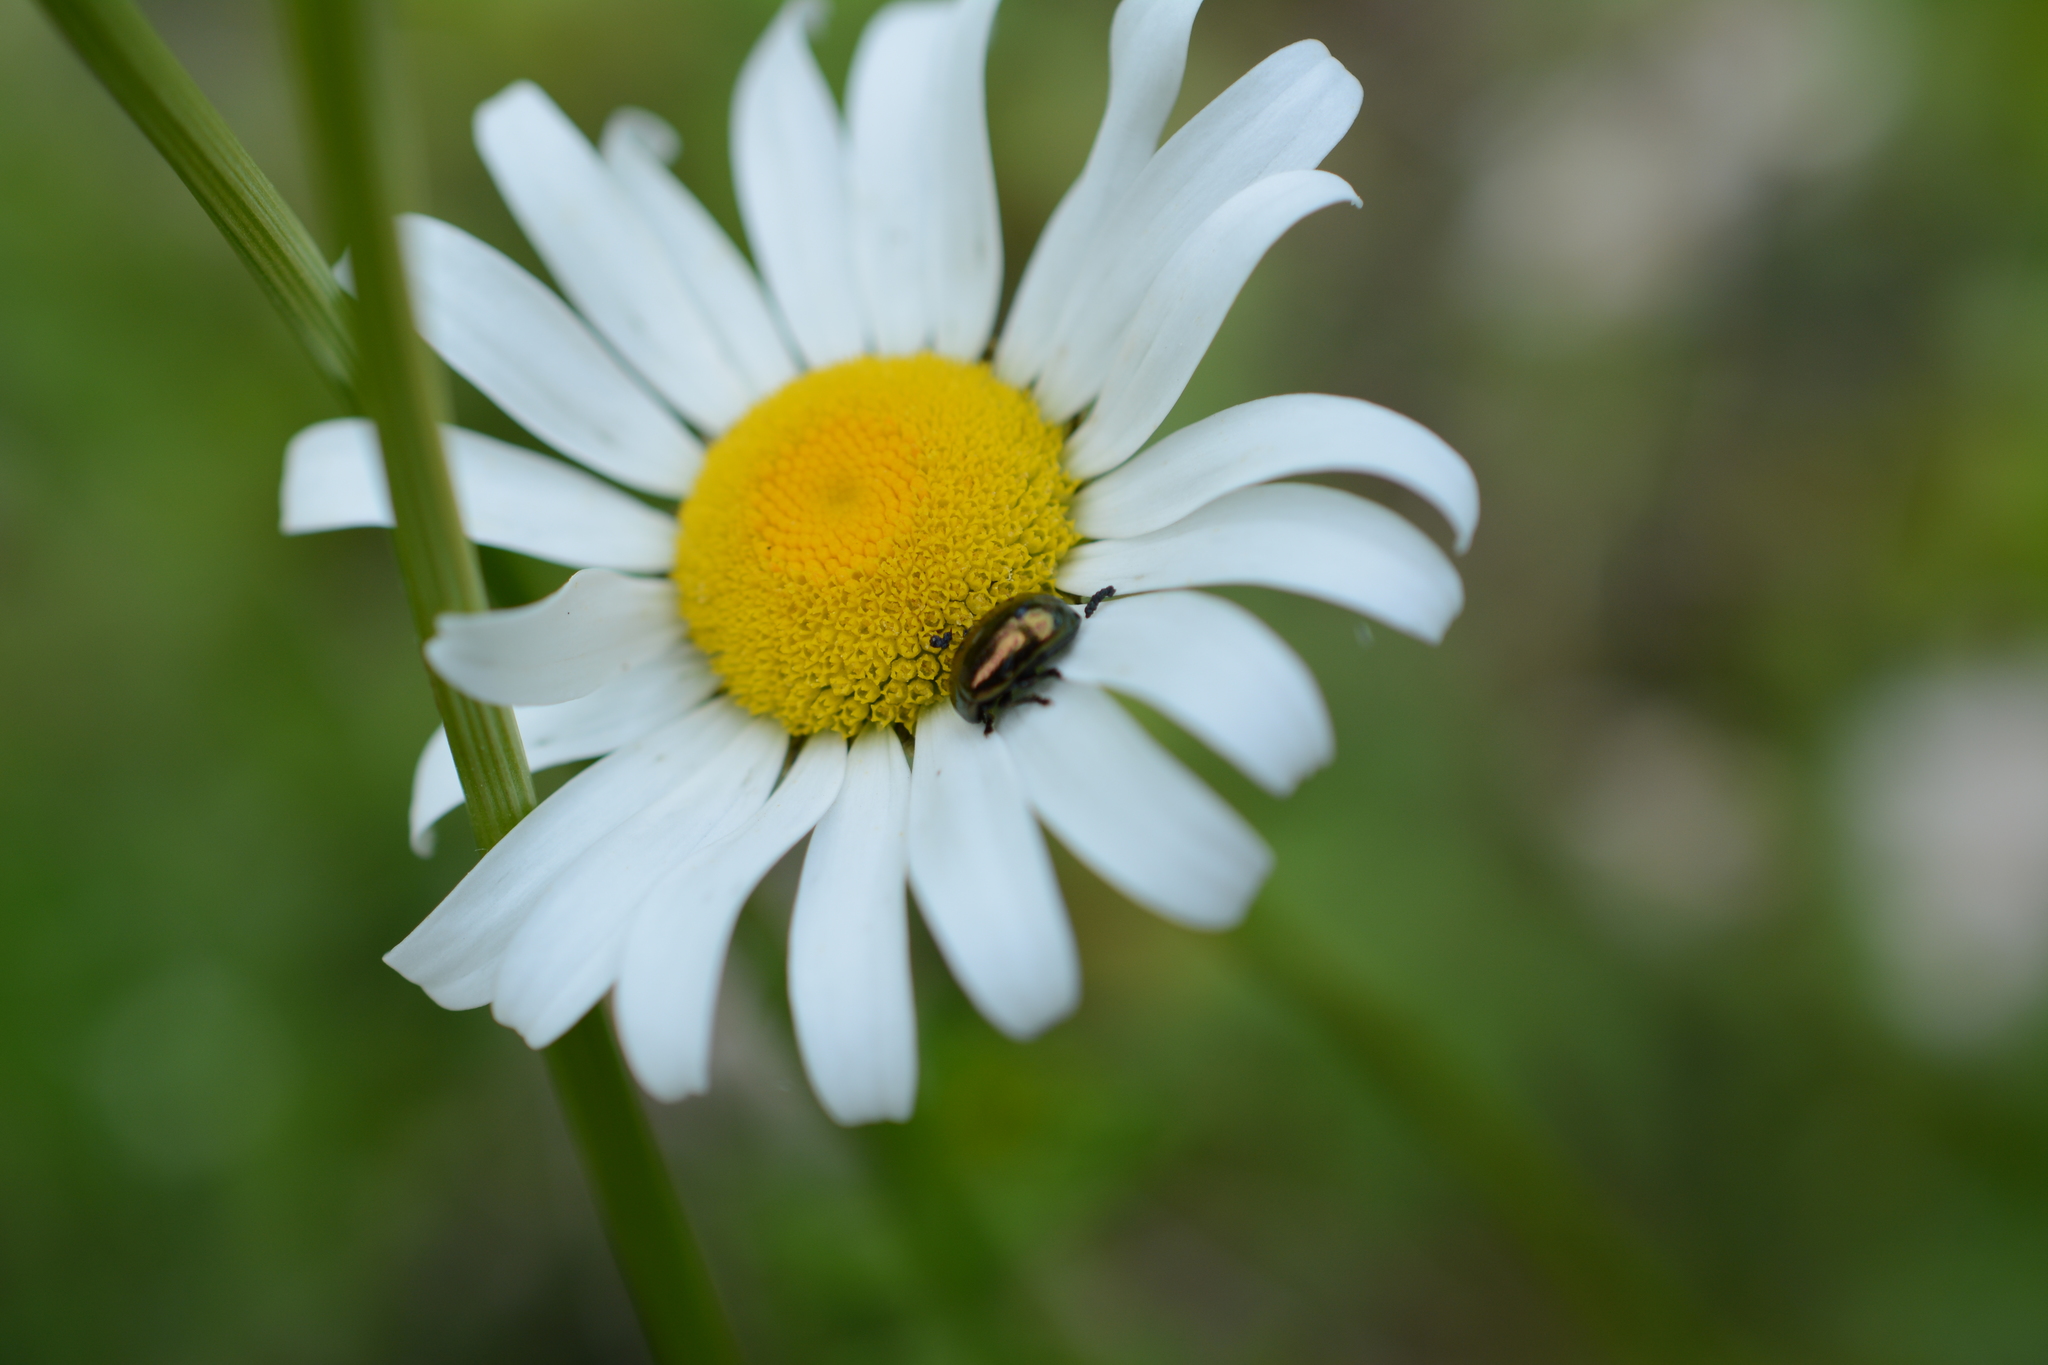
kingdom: Plantae
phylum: Tracheophyta
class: Magnoliopsida
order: Asterales
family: Asteraceae
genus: Leucanthemum
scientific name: Leucanthemum vulgare
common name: Oxeye daisy
